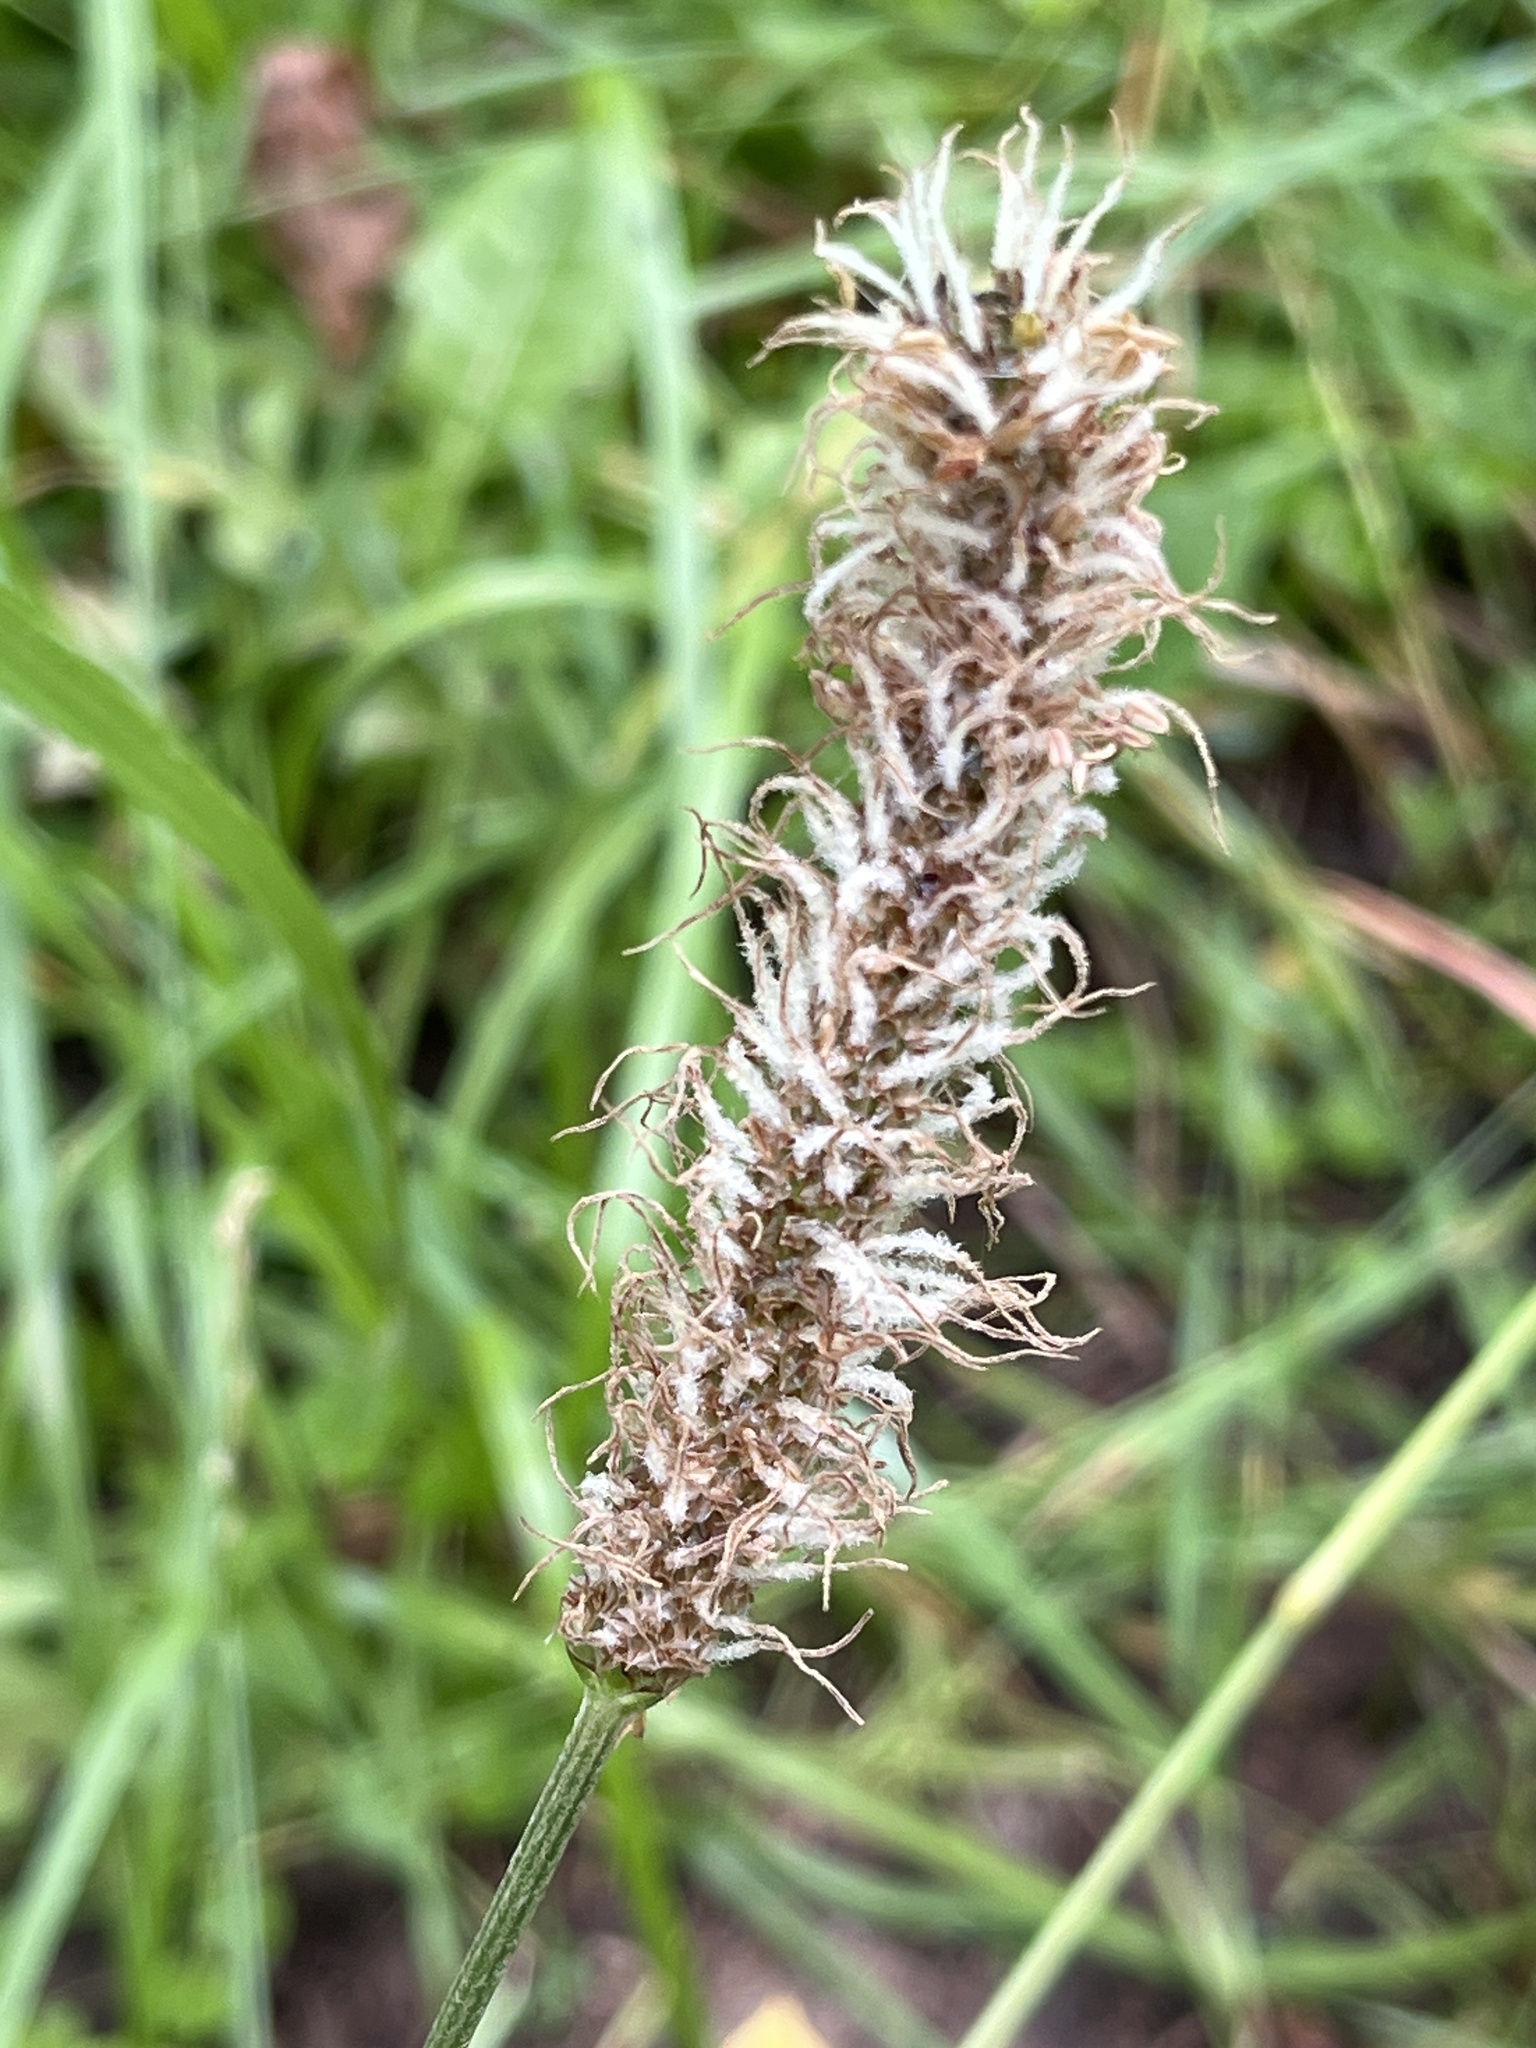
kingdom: Plantae
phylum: Tracheophyta
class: Magnoliopsida
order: Lamiales
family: Plantaginaceae
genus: Plantago
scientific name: Plantago lanceolata
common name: Ribwort plantain
